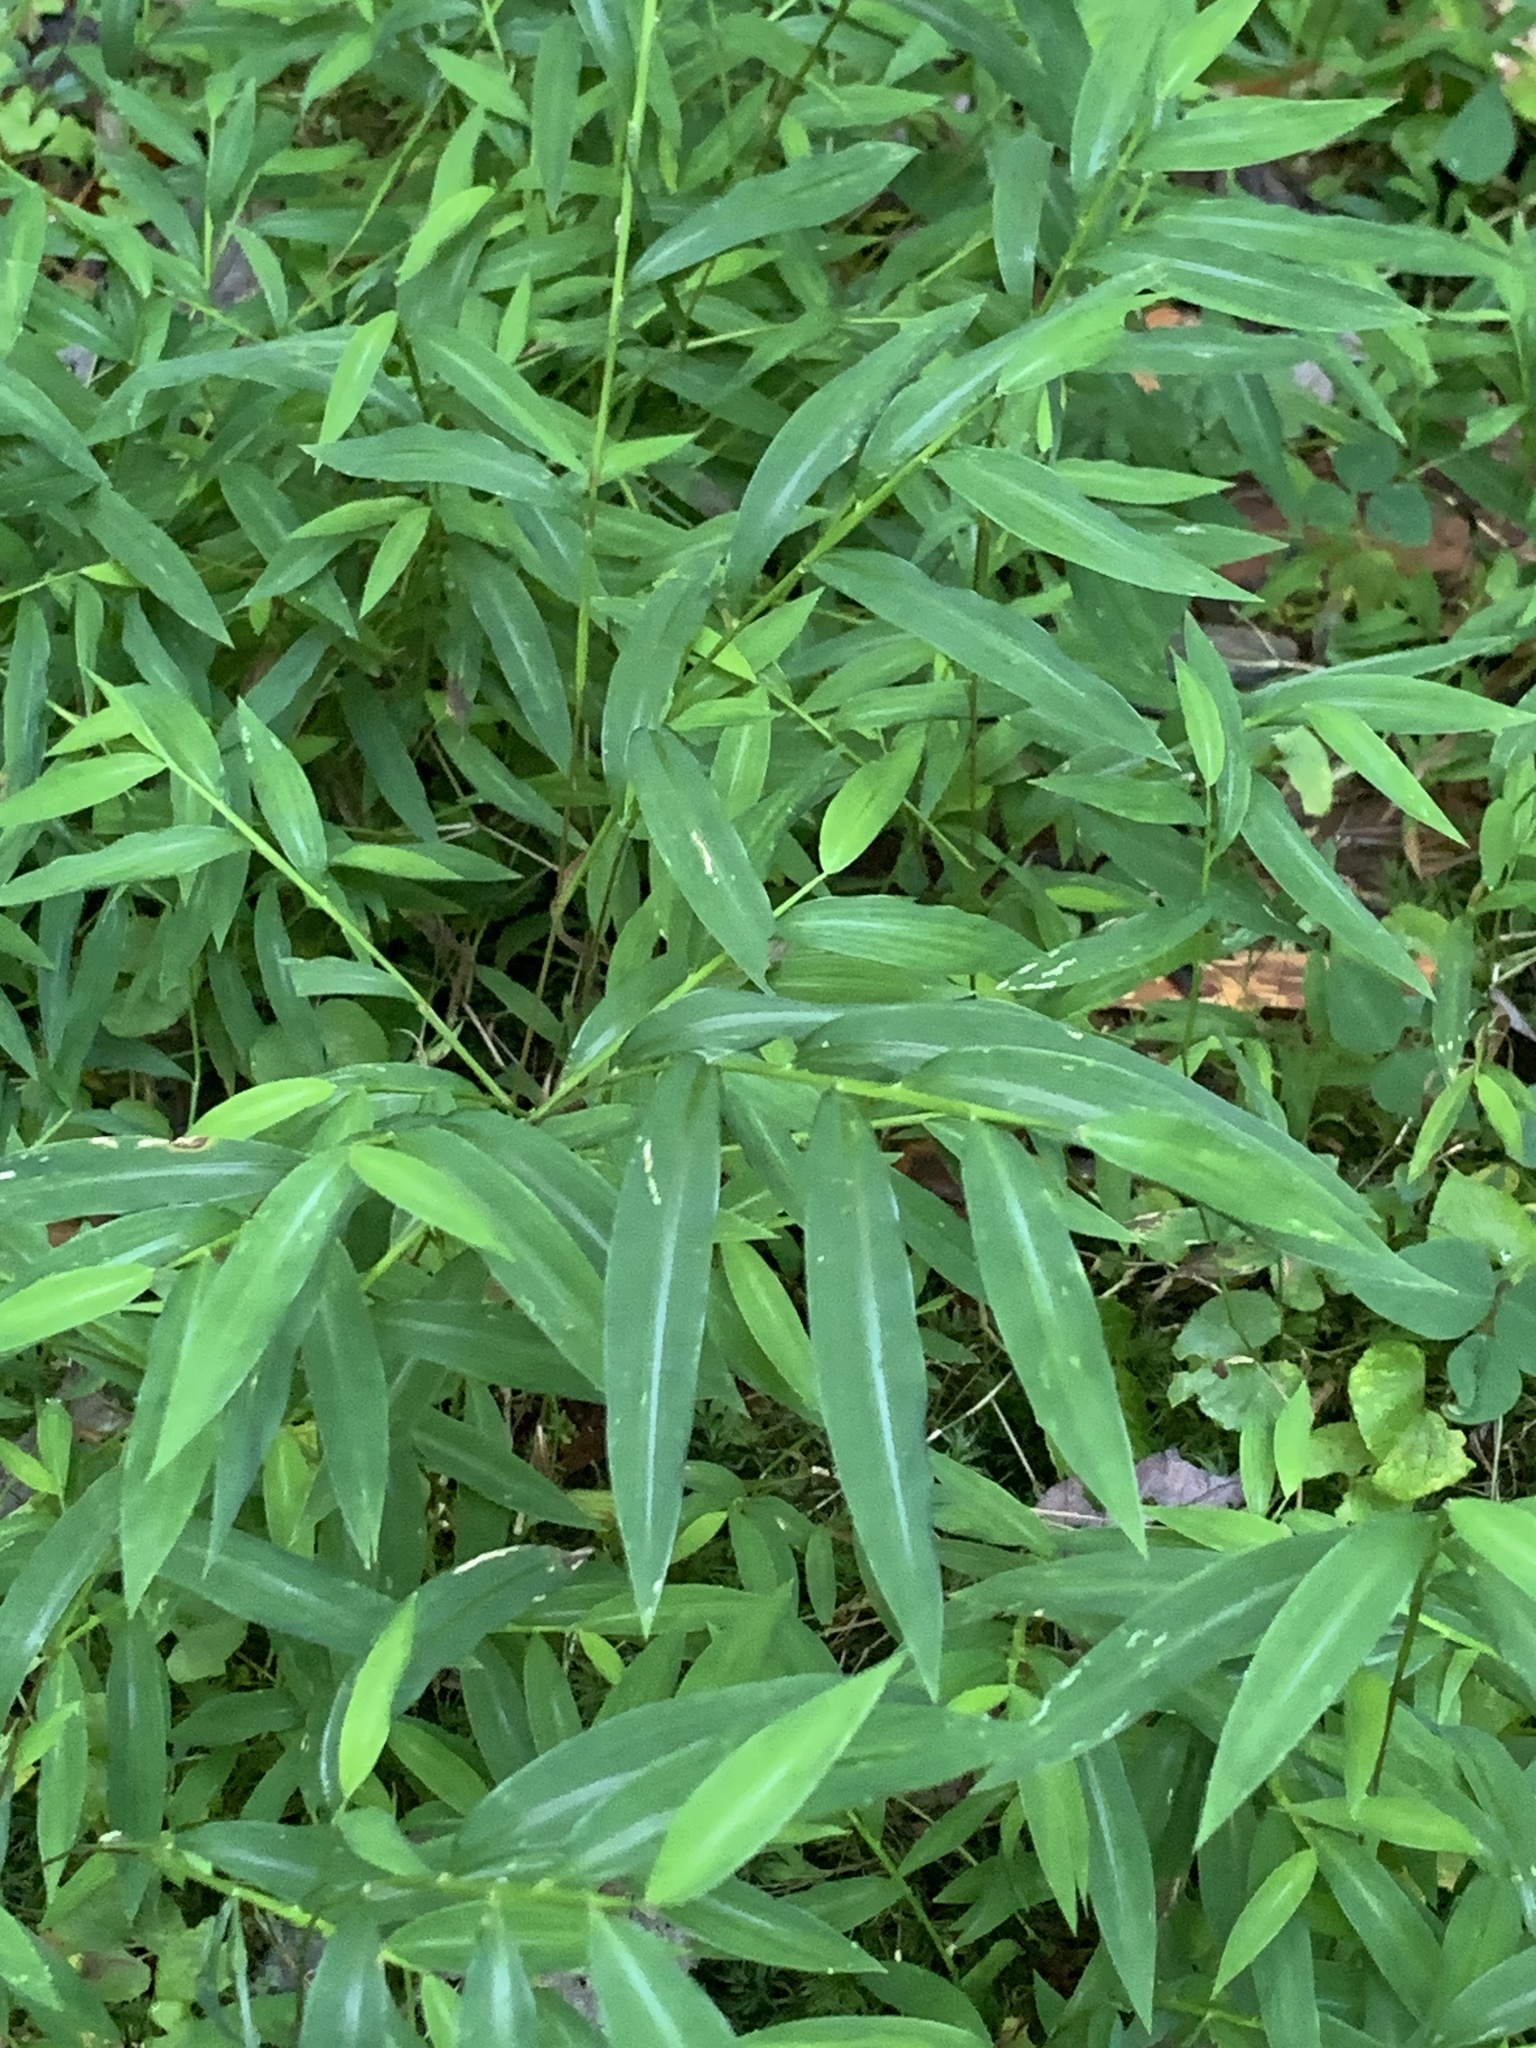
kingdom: Plantae
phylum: Tracheophyta
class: Liliopsida
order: Poales
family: Poaceae
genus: Microstegium
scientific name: Microstegium vimineum
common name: Japanese stiltgrass
